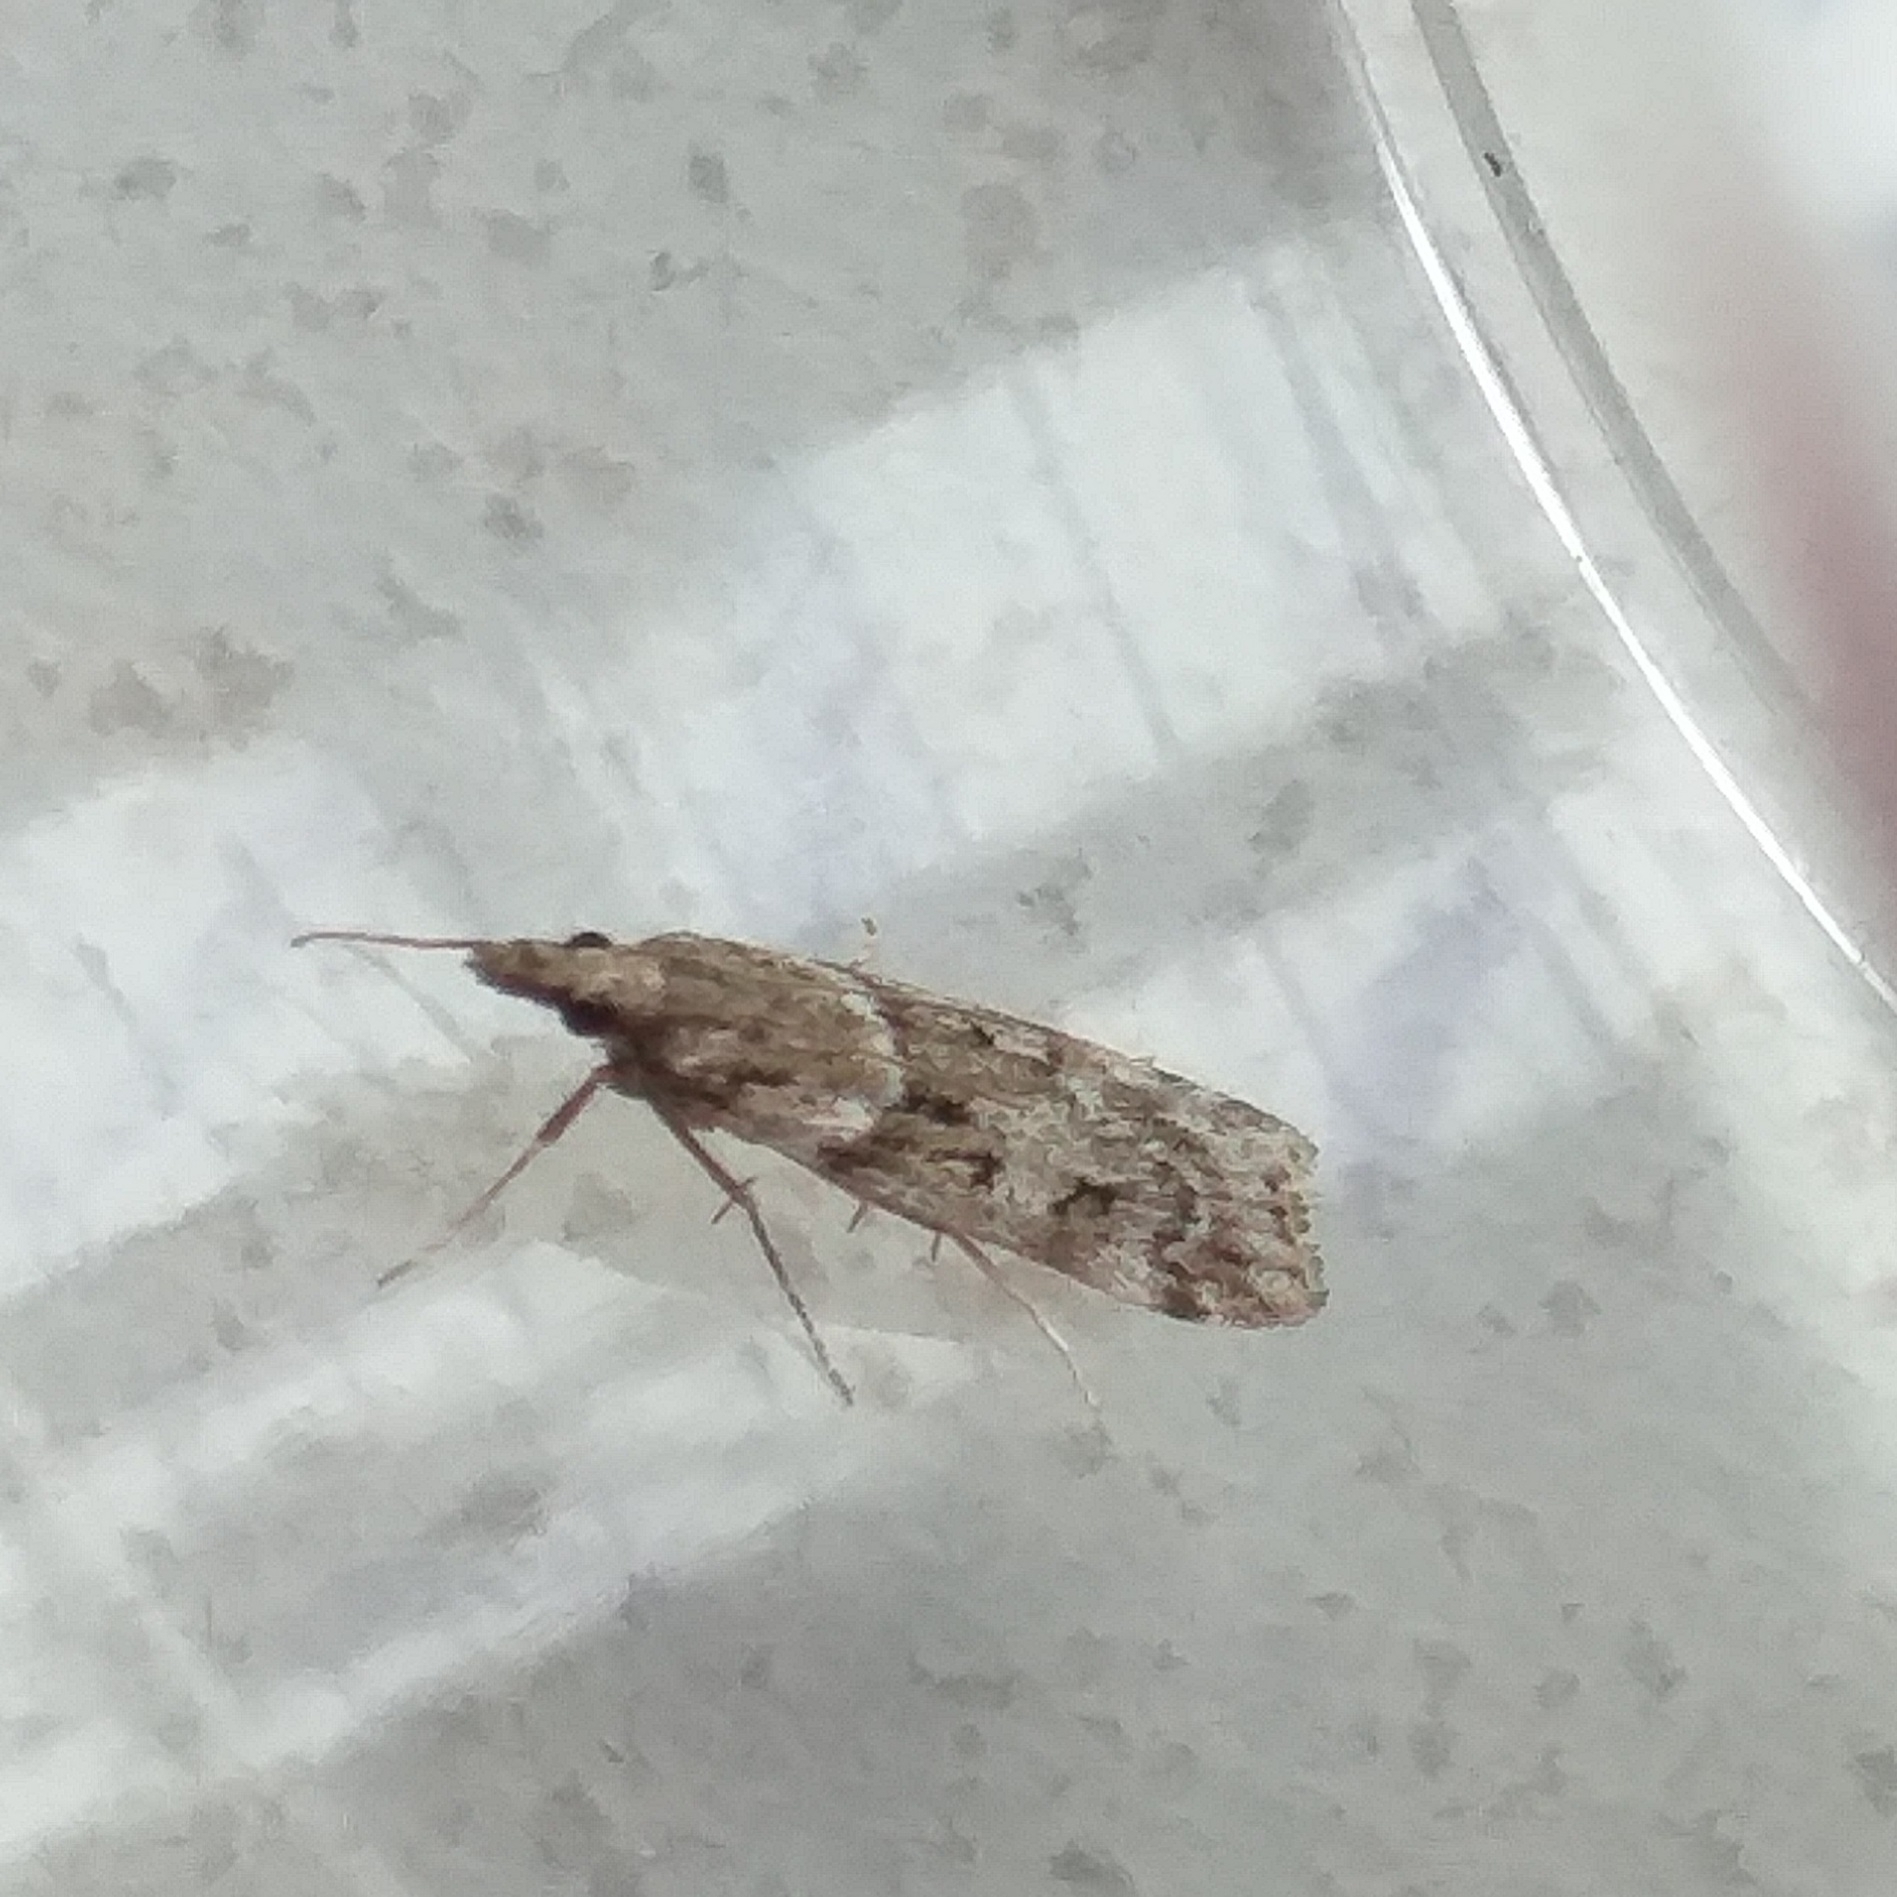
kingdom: Animalia
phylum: Arthropoda
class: Insecta
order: Lepidoptera
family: Crambidae
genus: Eudonia
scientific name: Eudonia angustea
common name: Narrow-winged grey
